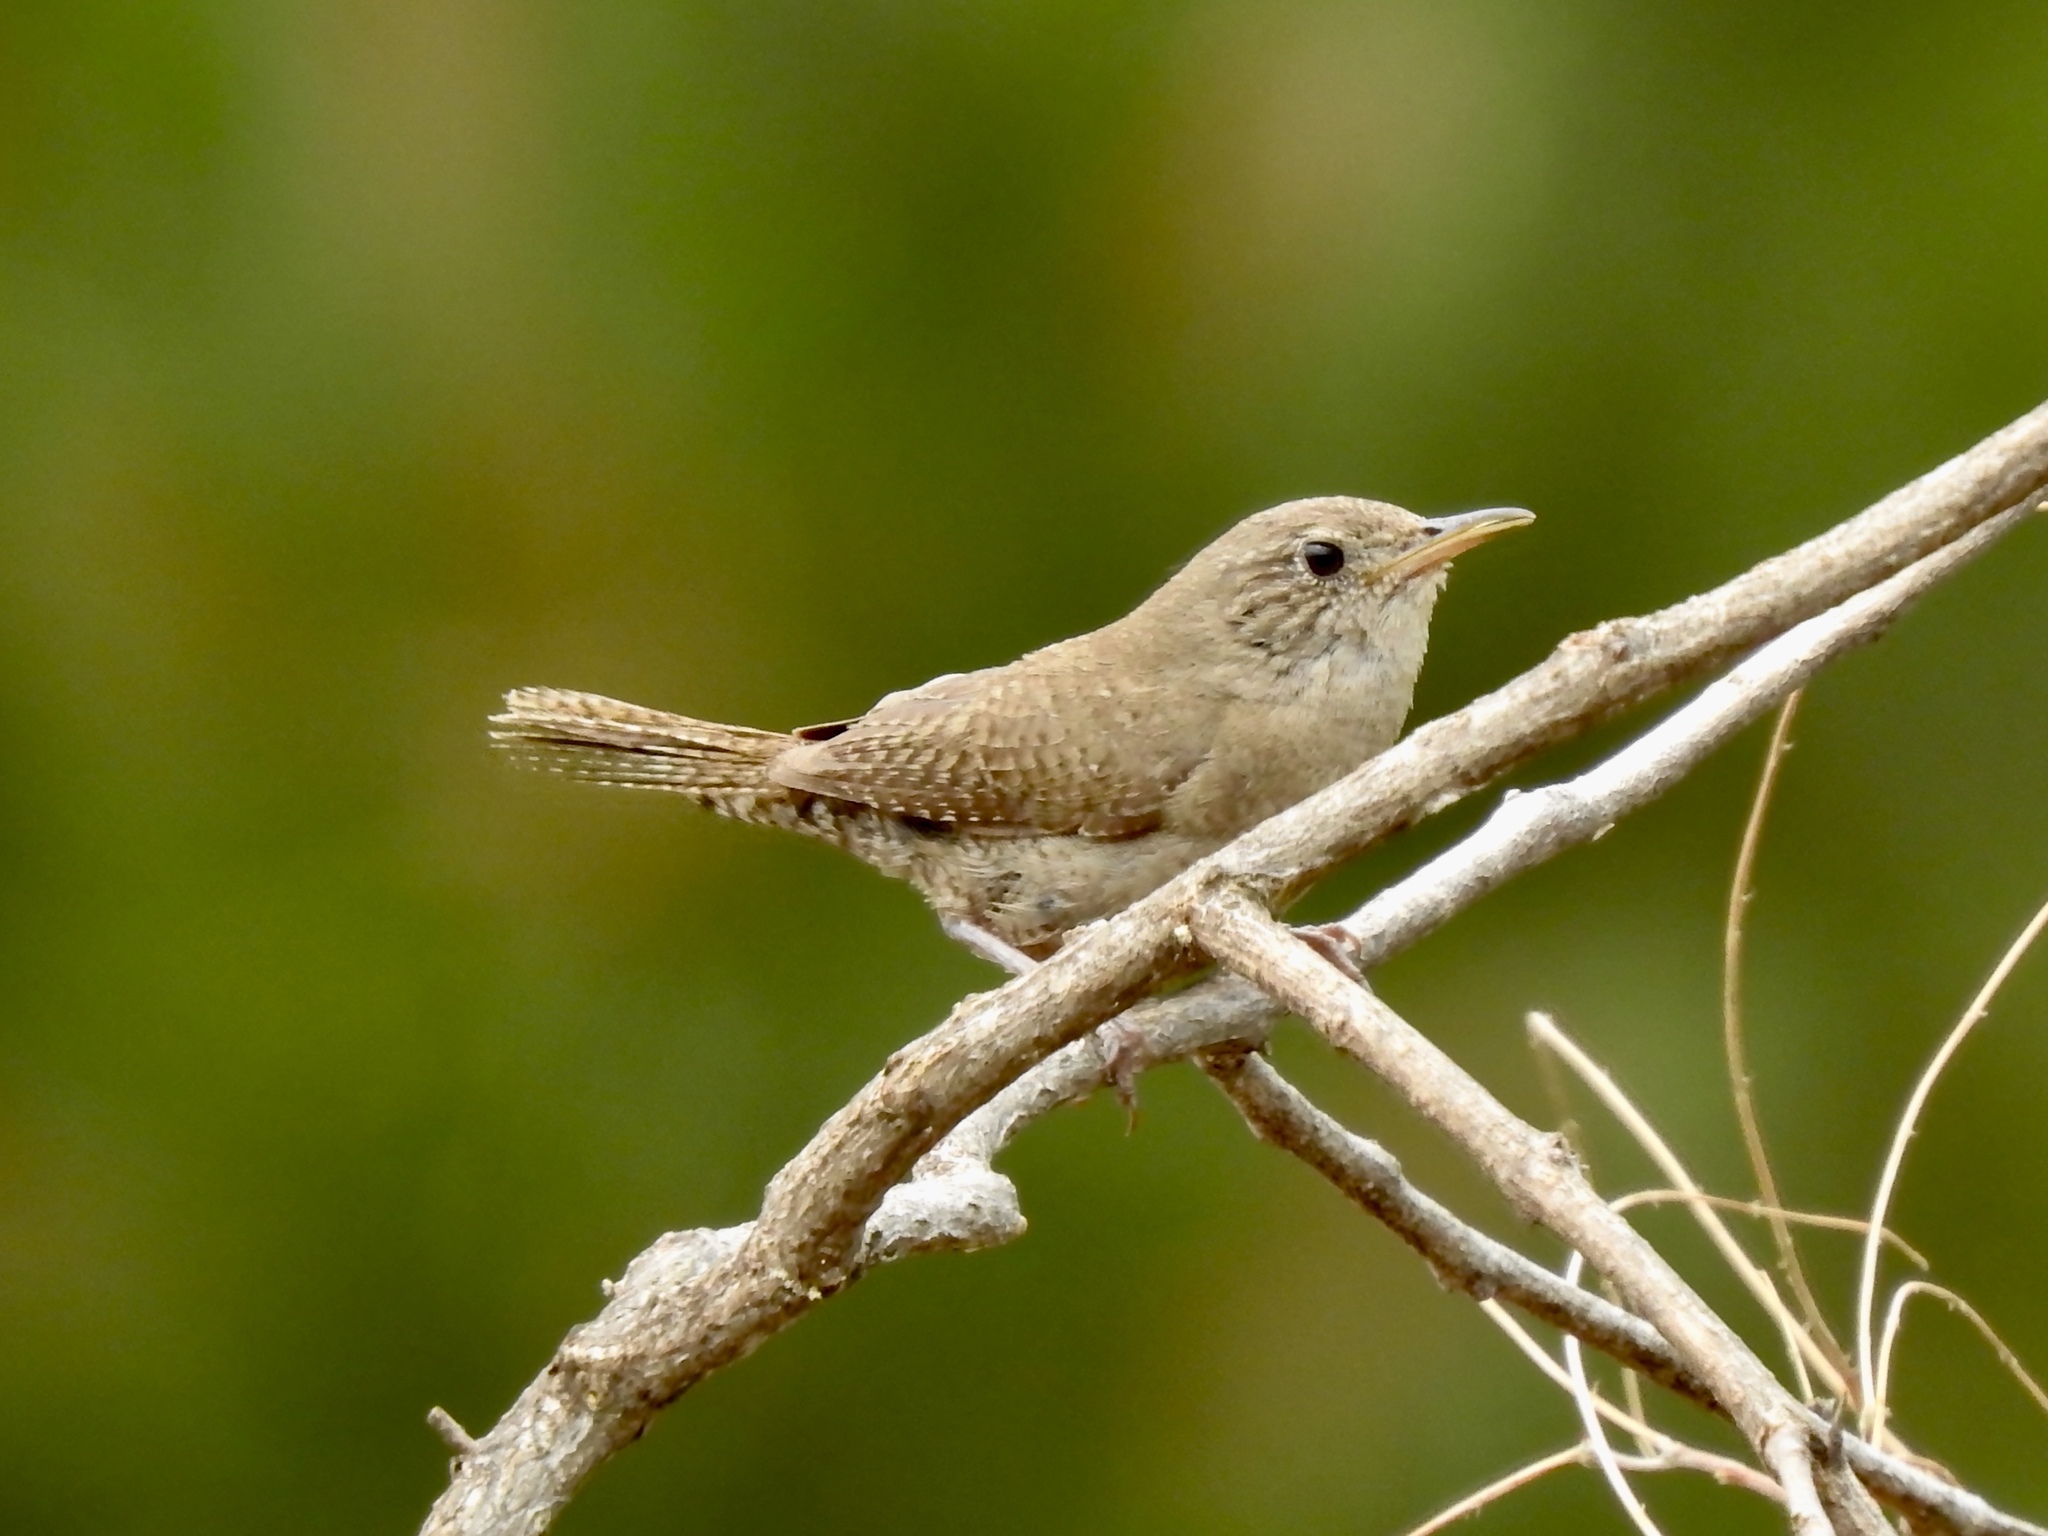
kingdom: Animalia
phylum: Chordata
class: Aves
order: Passeriformes
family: Troglodytidae
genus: Troglodytes
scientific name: Troglodytes aedon
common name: House wren
